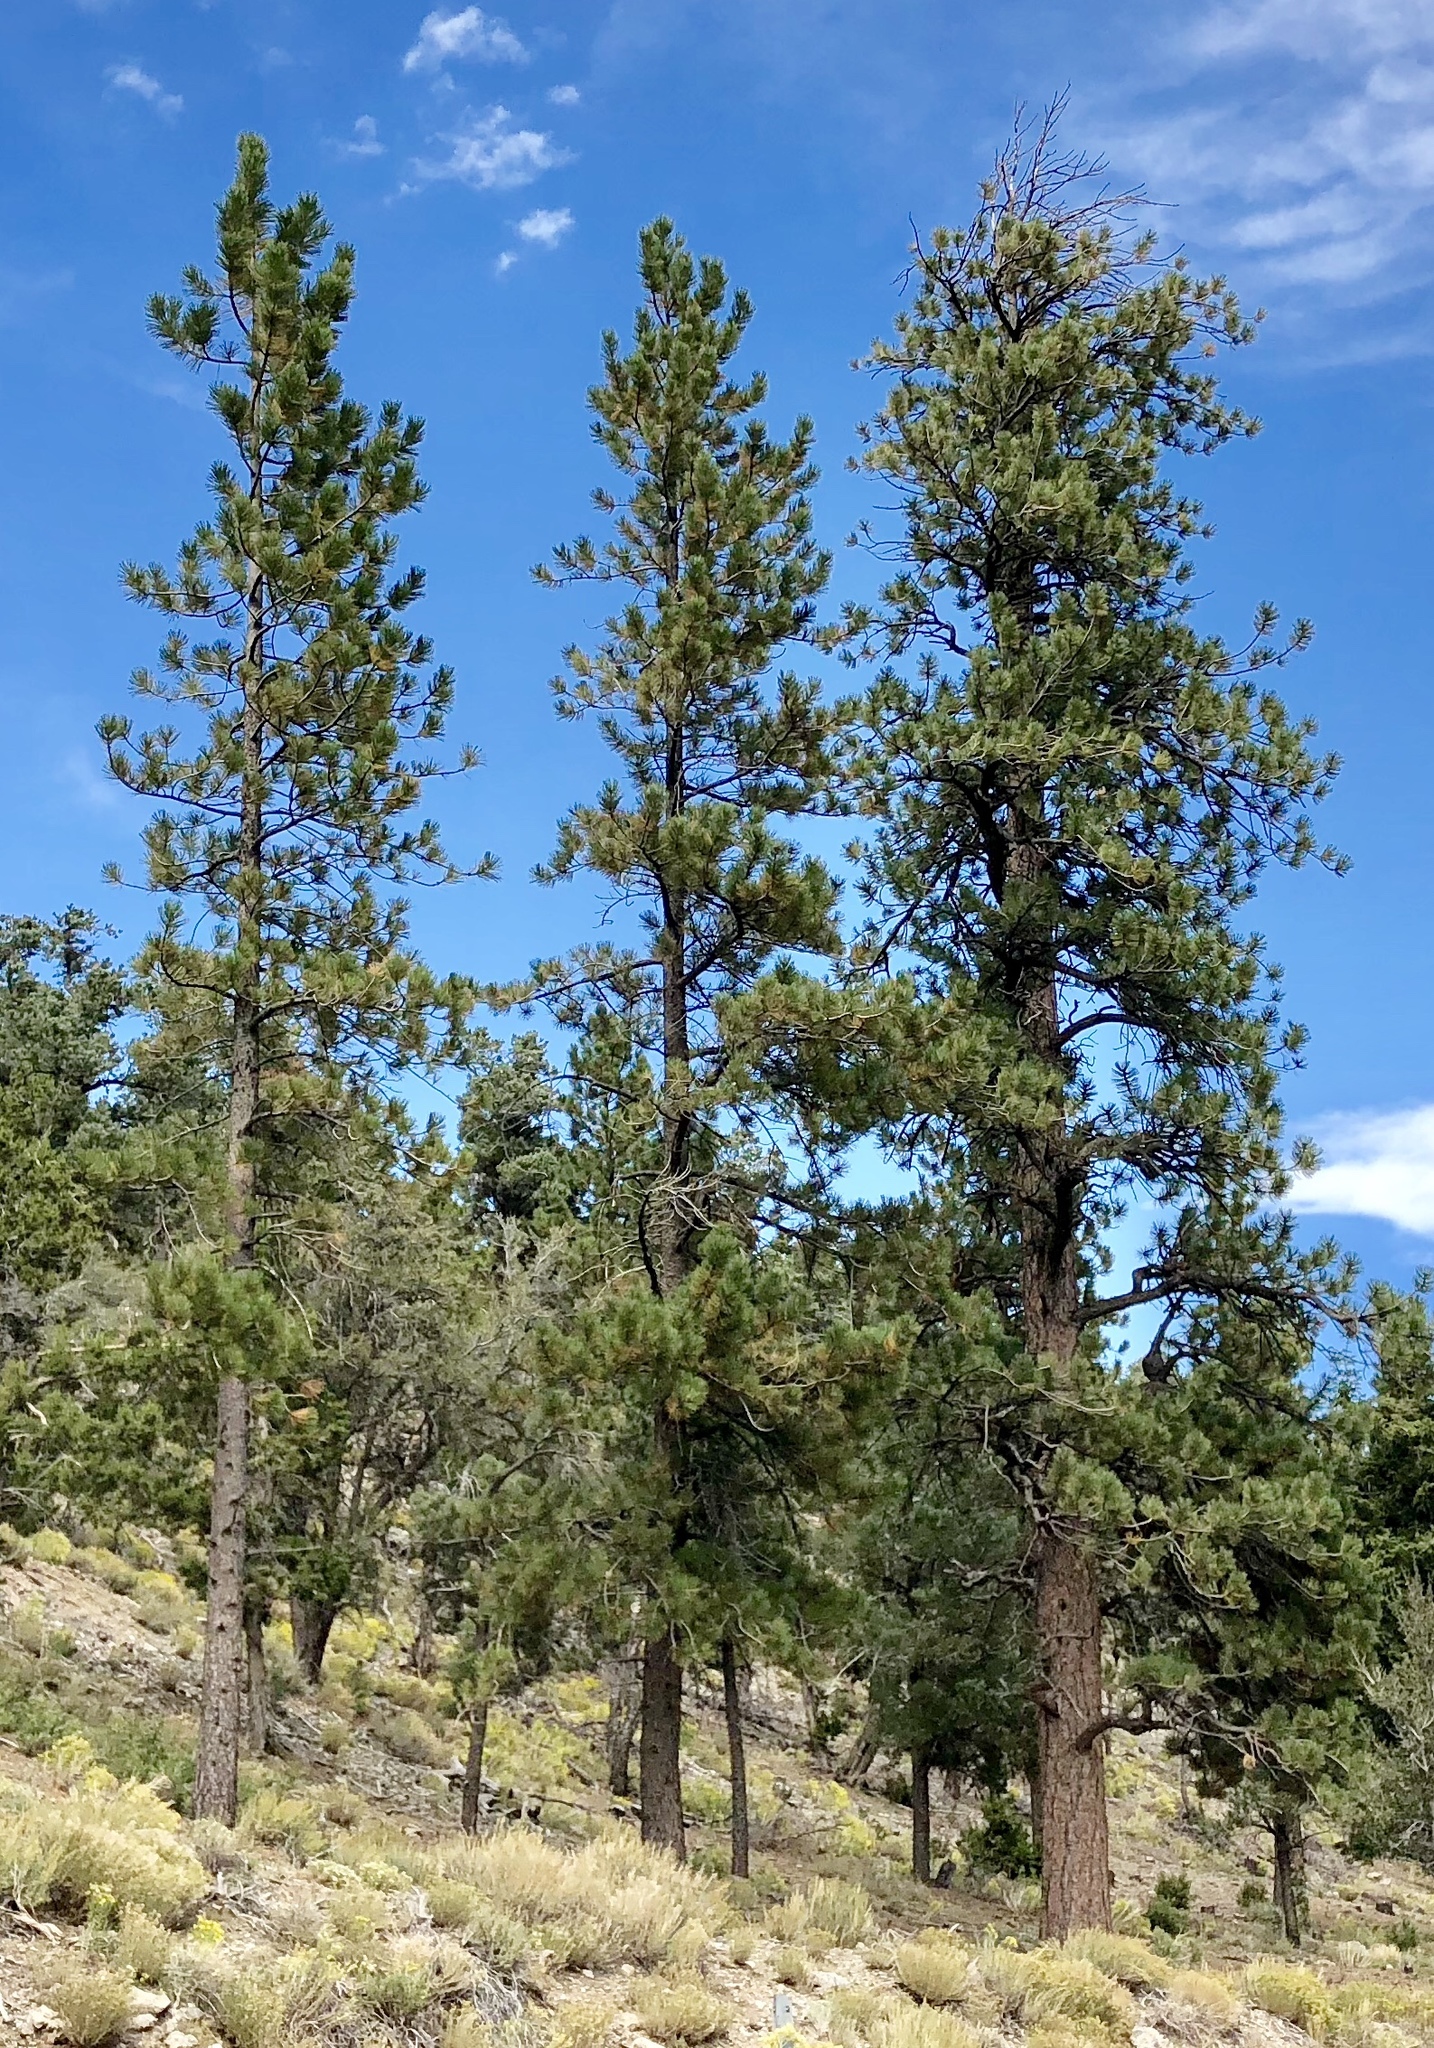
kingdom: Plantae
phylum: Tracheophyta
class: Pinopsida
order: Pinales
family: Pinaceae
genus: Pinus
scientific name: Pinus ponderosa
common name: Western yellow-pine
